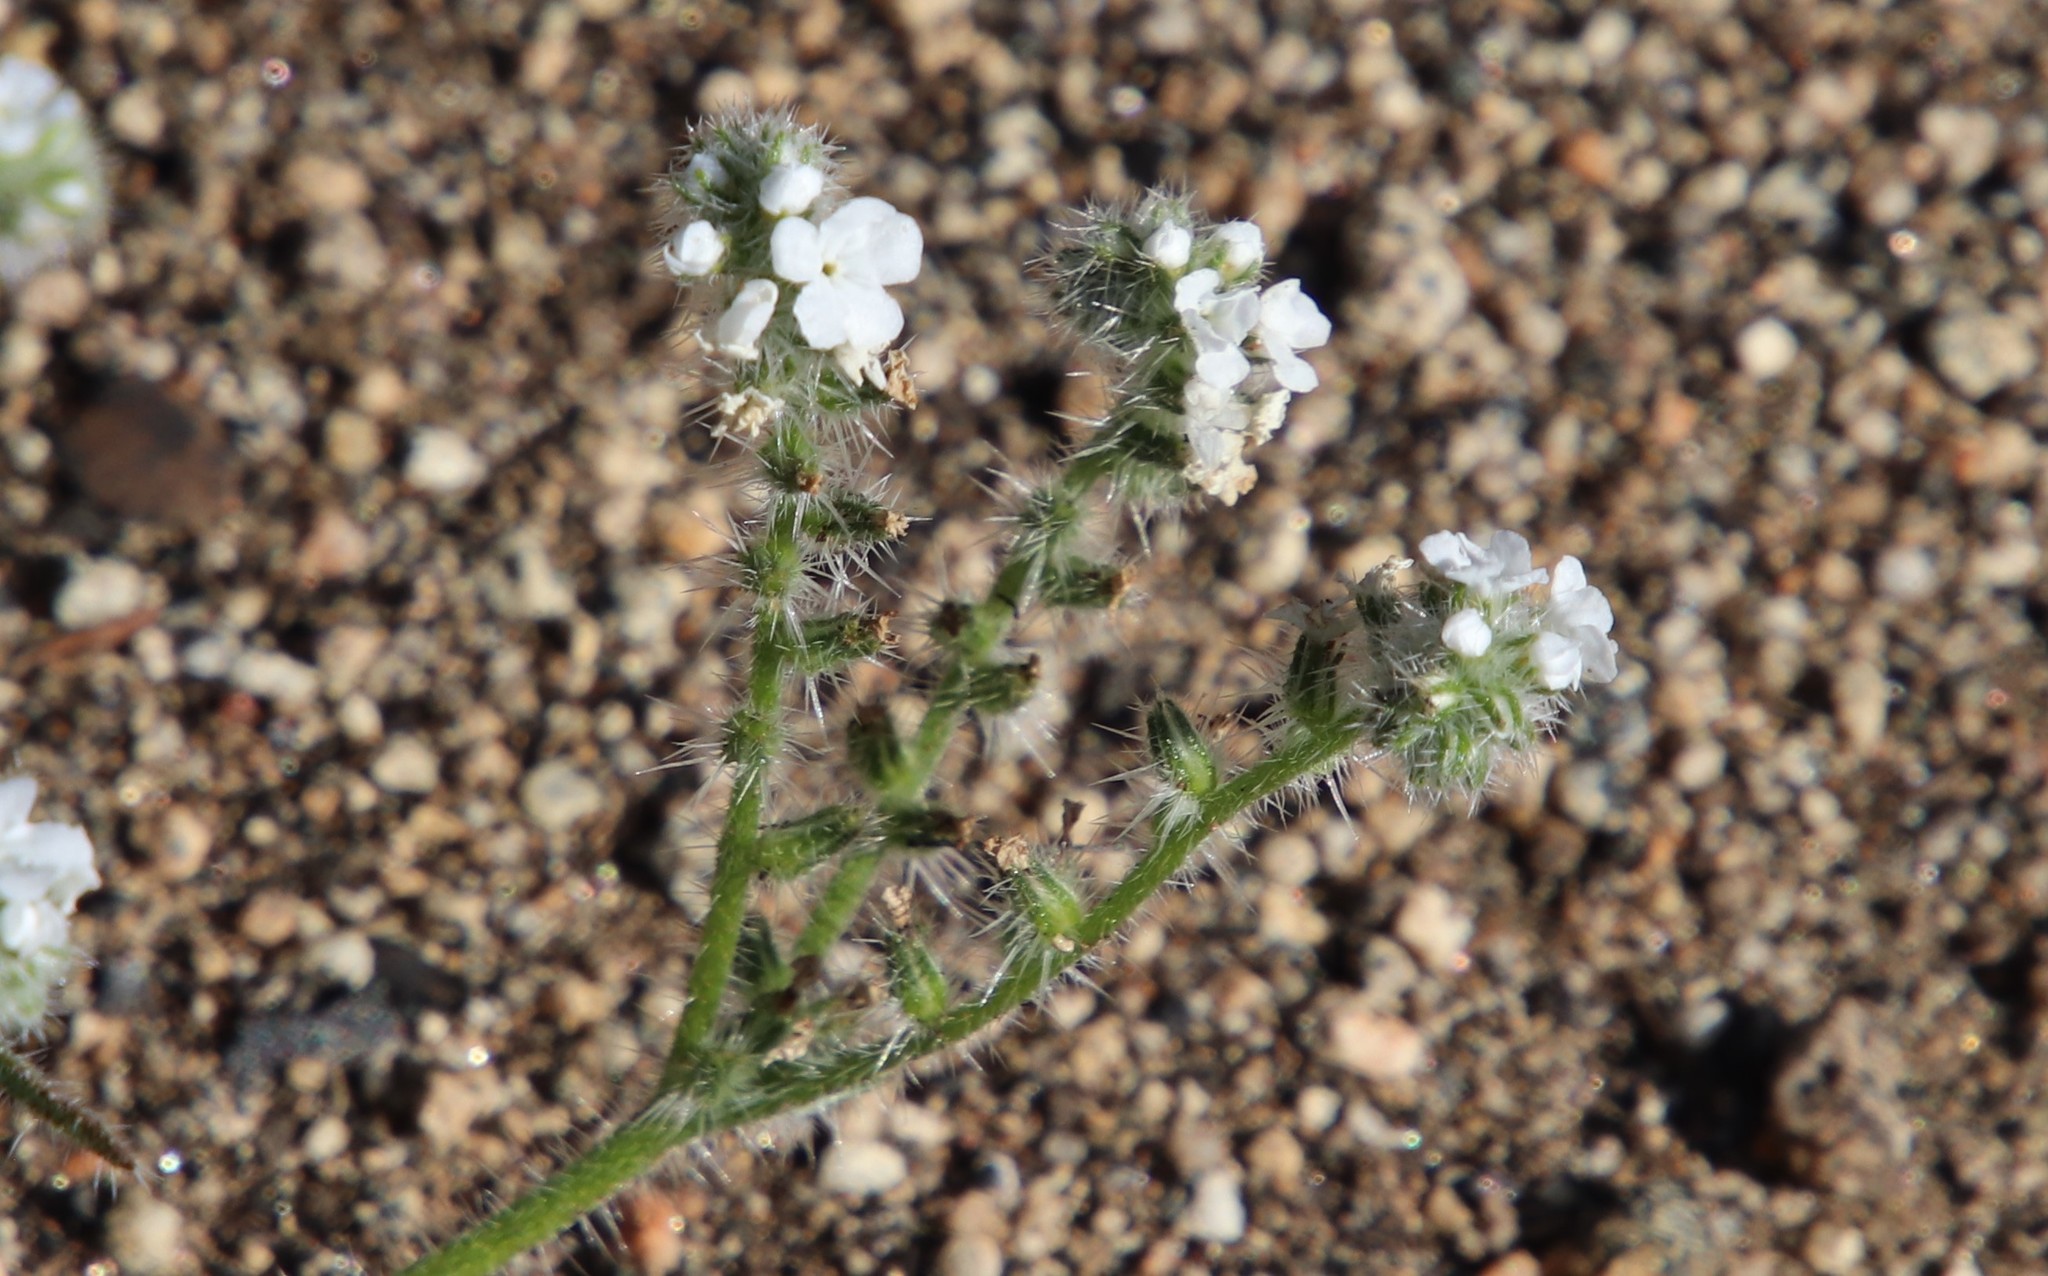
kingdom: Plantae
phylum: Tracheophyta
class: Magnoliopsida
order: Boraginales
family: Boraginaceae
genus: Cryptantha
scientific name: Cryptantha intermedia
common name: Clearwater cryptantha
